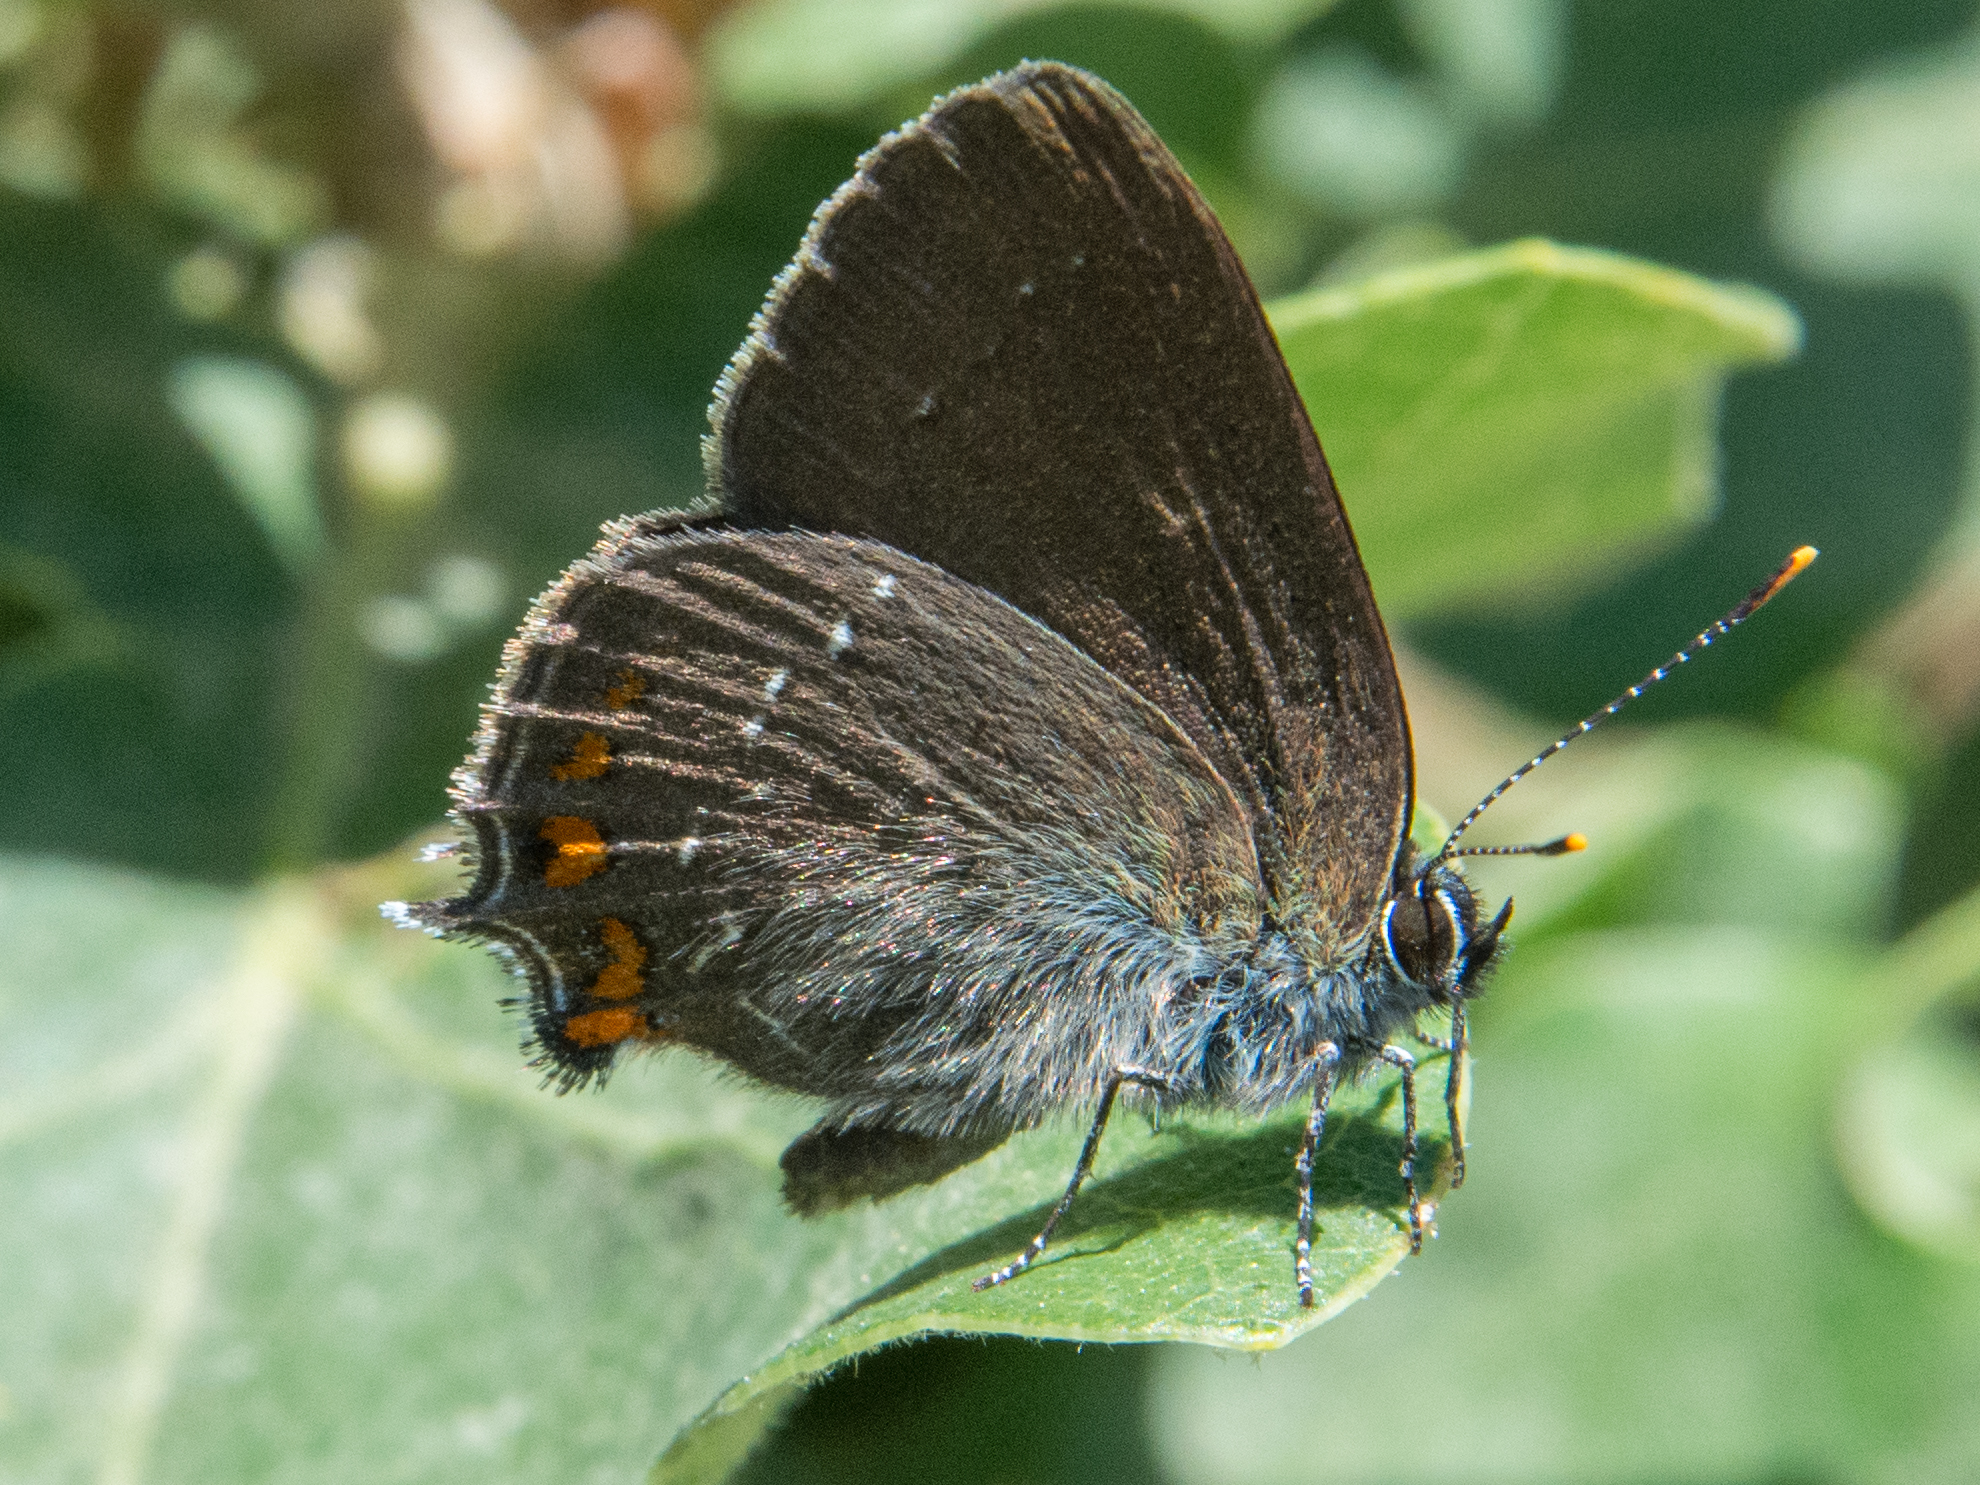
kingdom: Animalia
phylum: Arthropoda
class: Insecta
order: Lepidoptera
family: Lycaenidae
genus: Nordmannia
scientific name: Nordmannia ilicis
